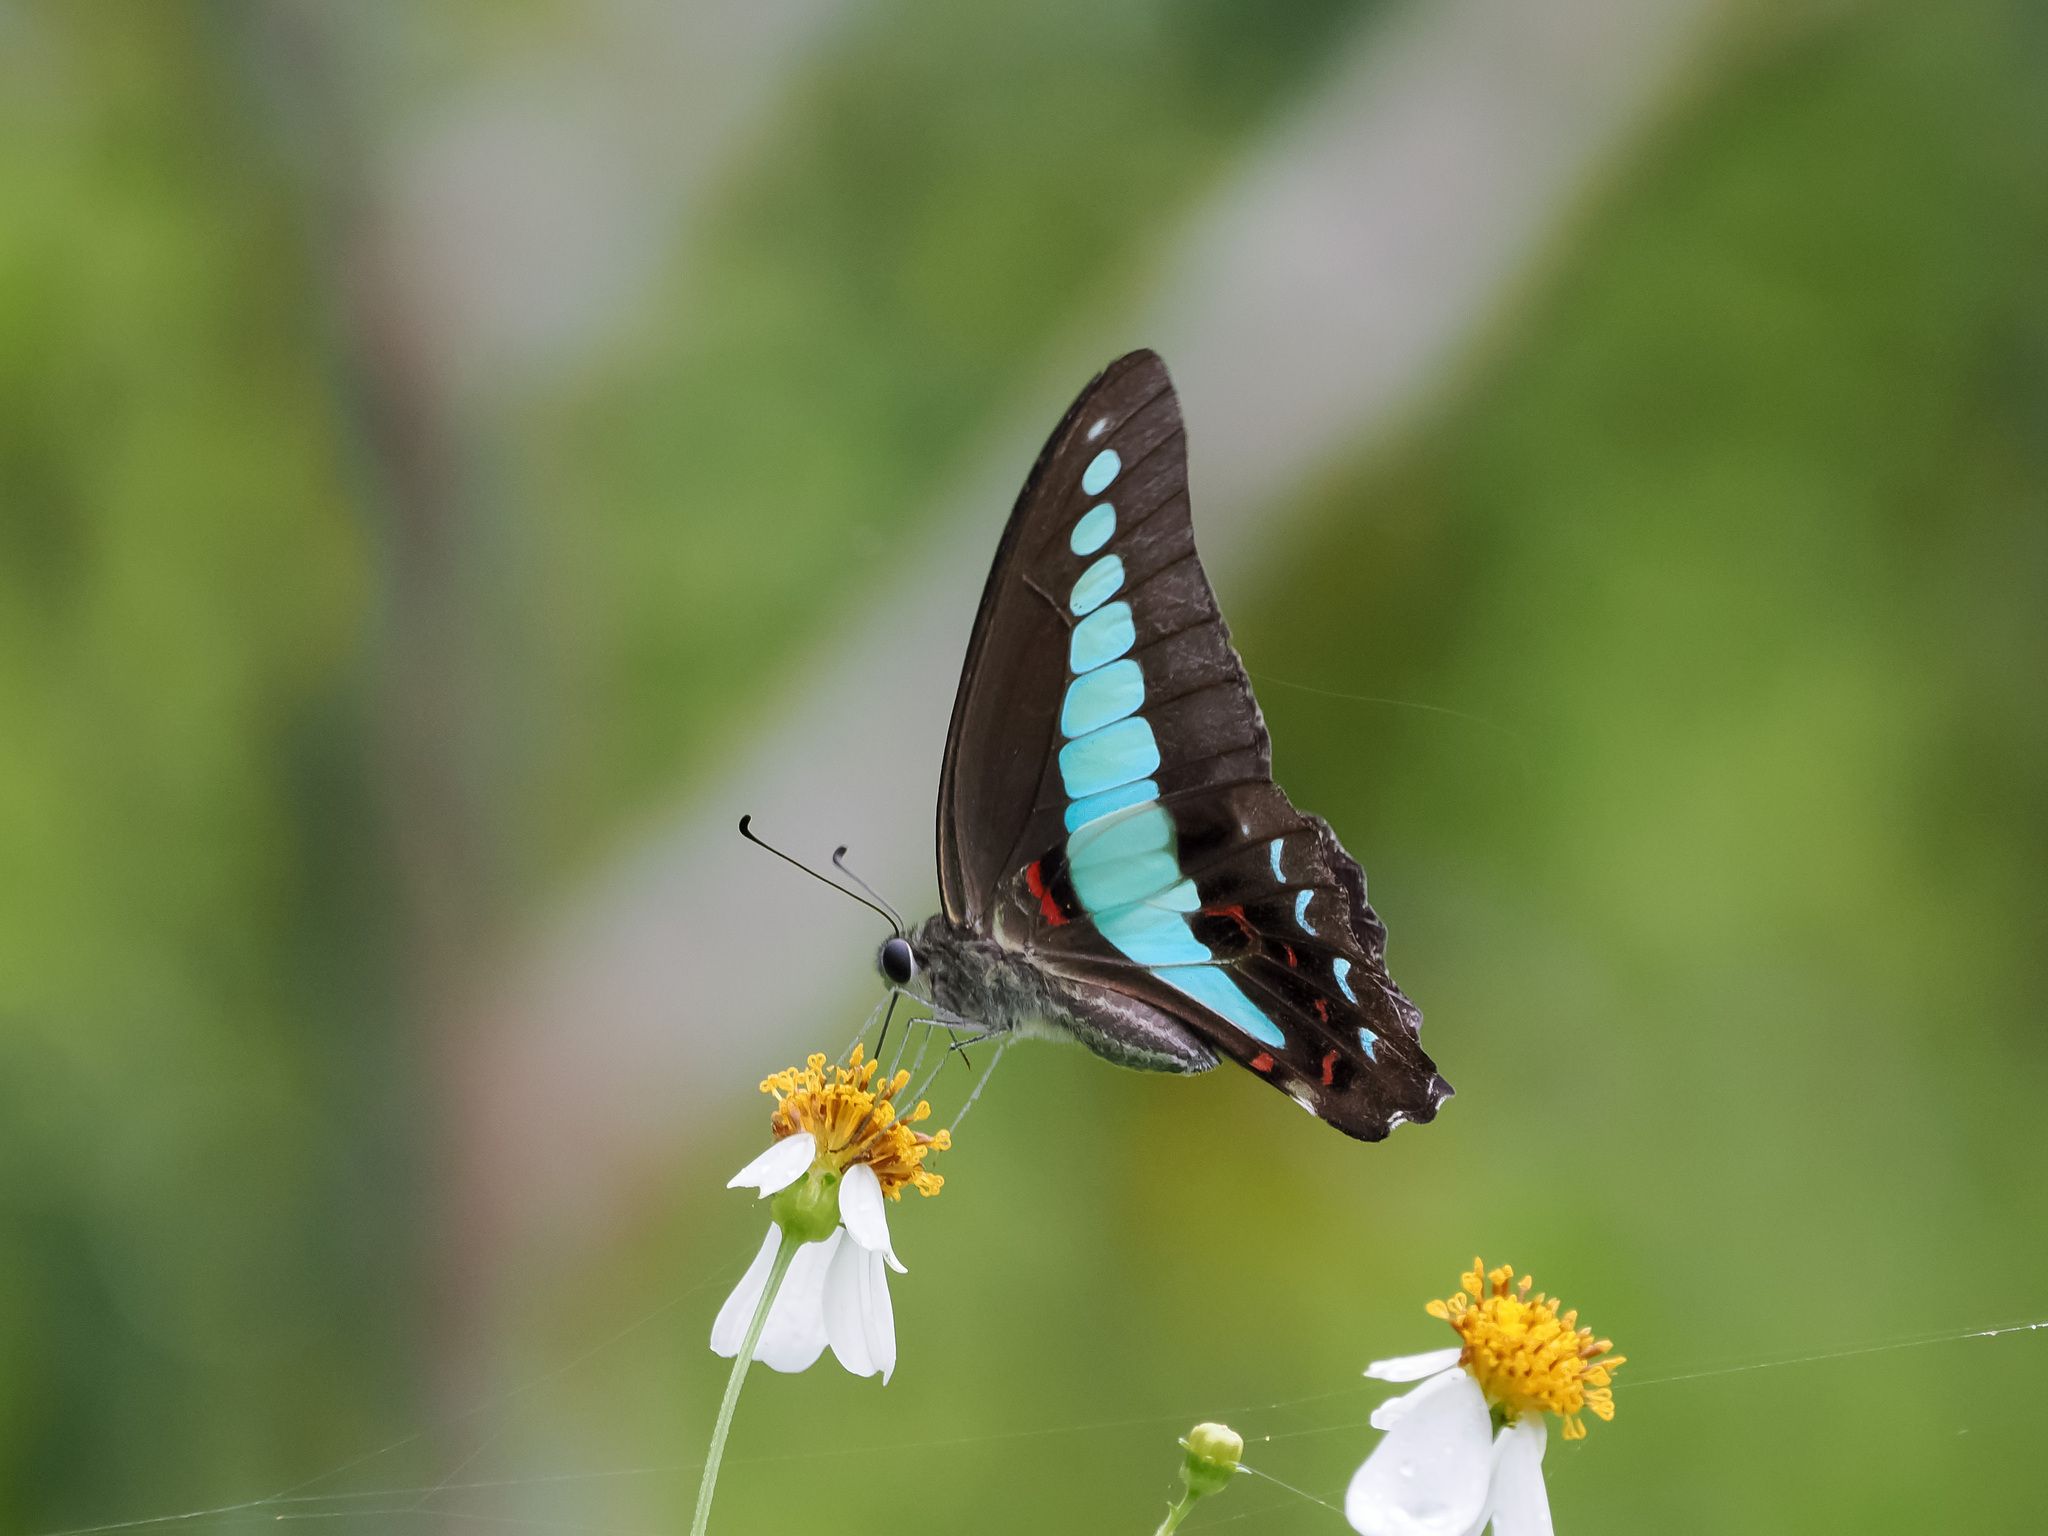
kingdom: Fungi
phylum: Ascomycota
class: Sordariomycetes
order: Microascales
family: Microascaceae
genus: Graphium
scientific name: Graphium sarpedon
